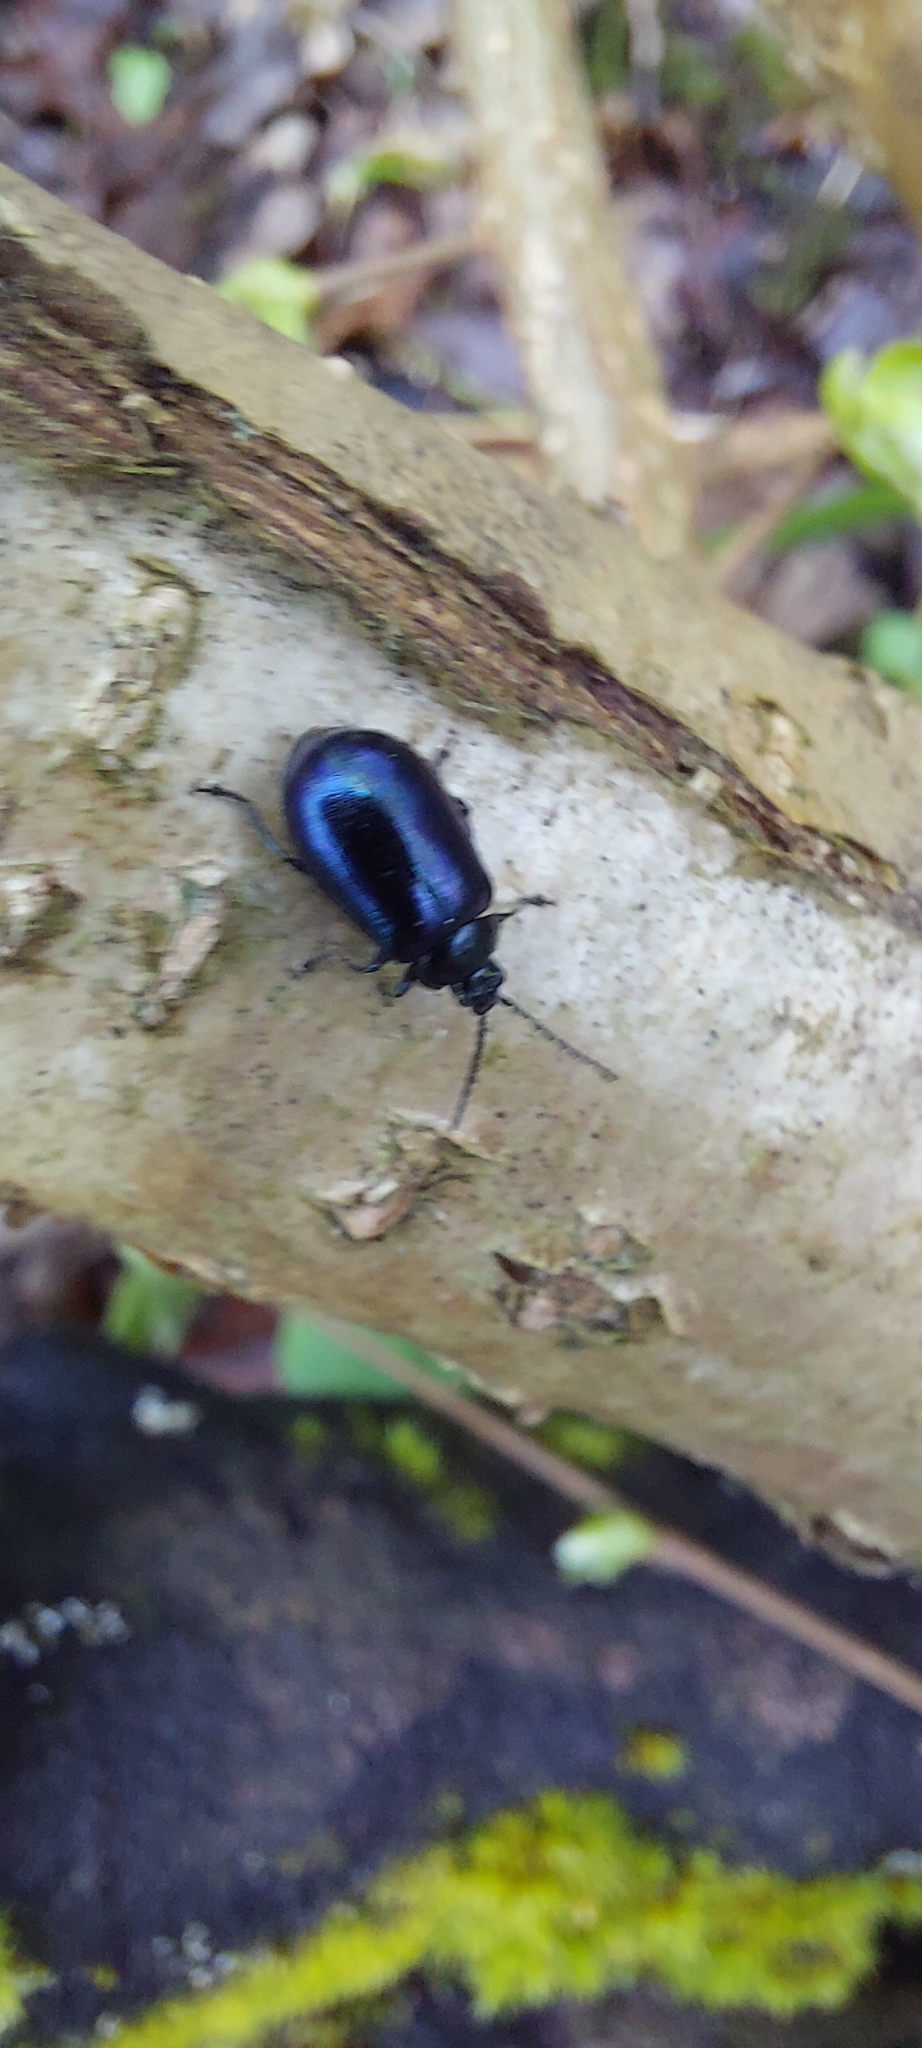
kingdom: Animalia
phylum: Arthropoda
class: Insecta
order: Coleoptera
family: Chrysomelidae
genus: Agelastica
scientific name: Agelastica alni
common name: Alder leaf beetle
